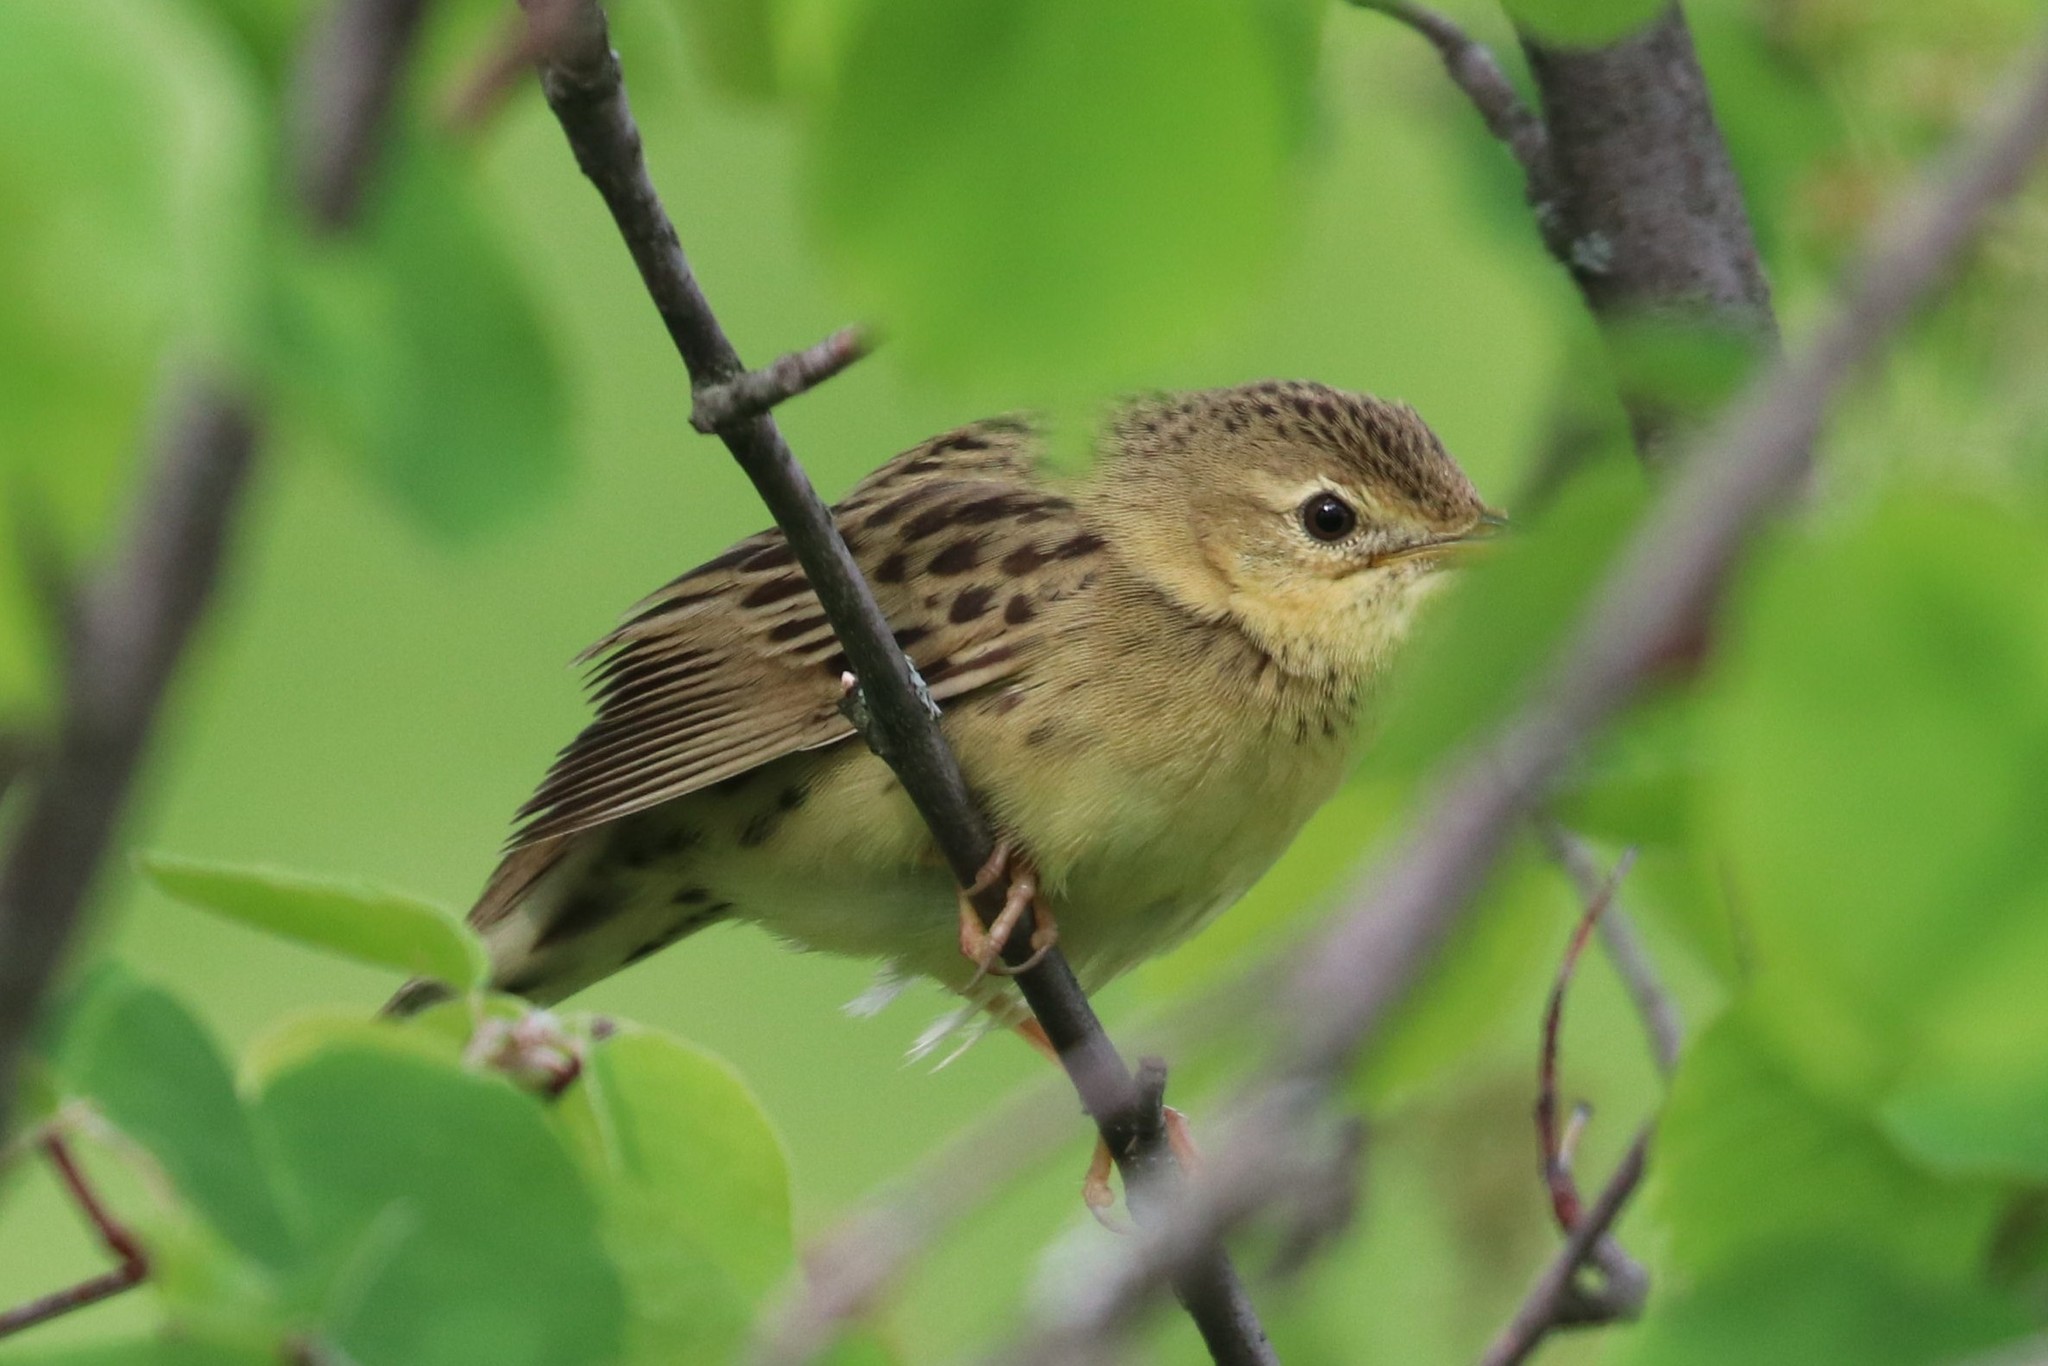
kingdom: Animalia
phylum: Chordata
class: Aves
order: Passeriformes
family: Locustellidae
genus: Locustella
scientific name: Locustella naevia
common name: Common grasshopper warbler
